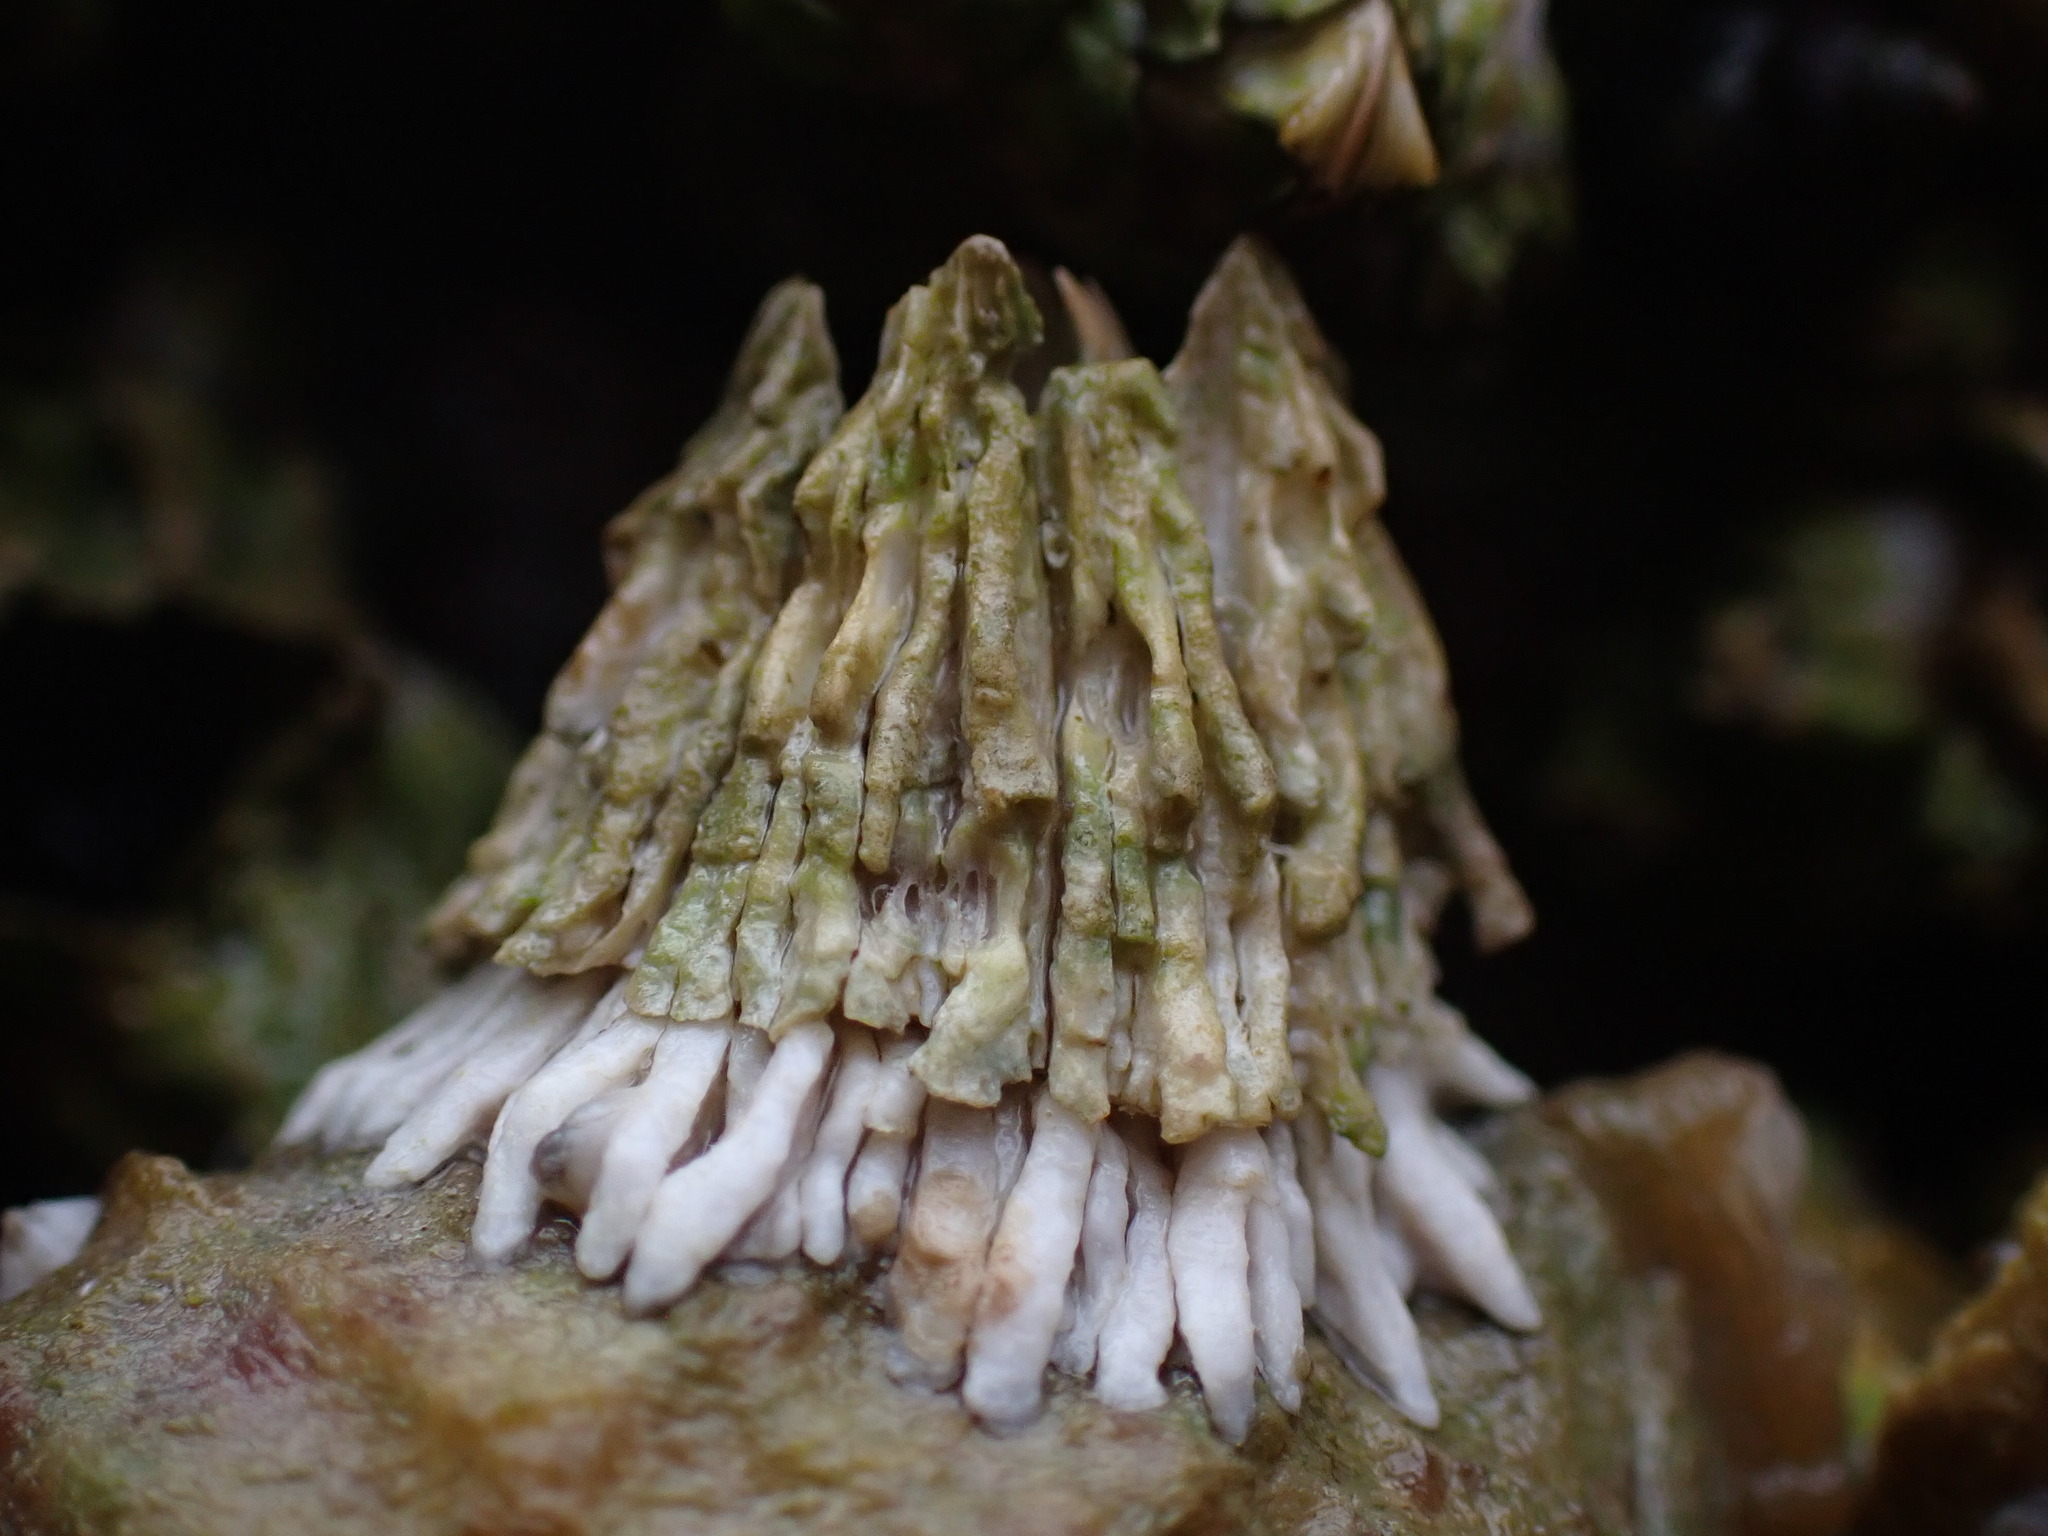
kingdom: Animalia
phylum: Arthropoda
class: Maxillopoda
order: Sessilia
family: Archaeobalanidae
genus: Semibalanus
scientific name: Semibalanus cariosus
